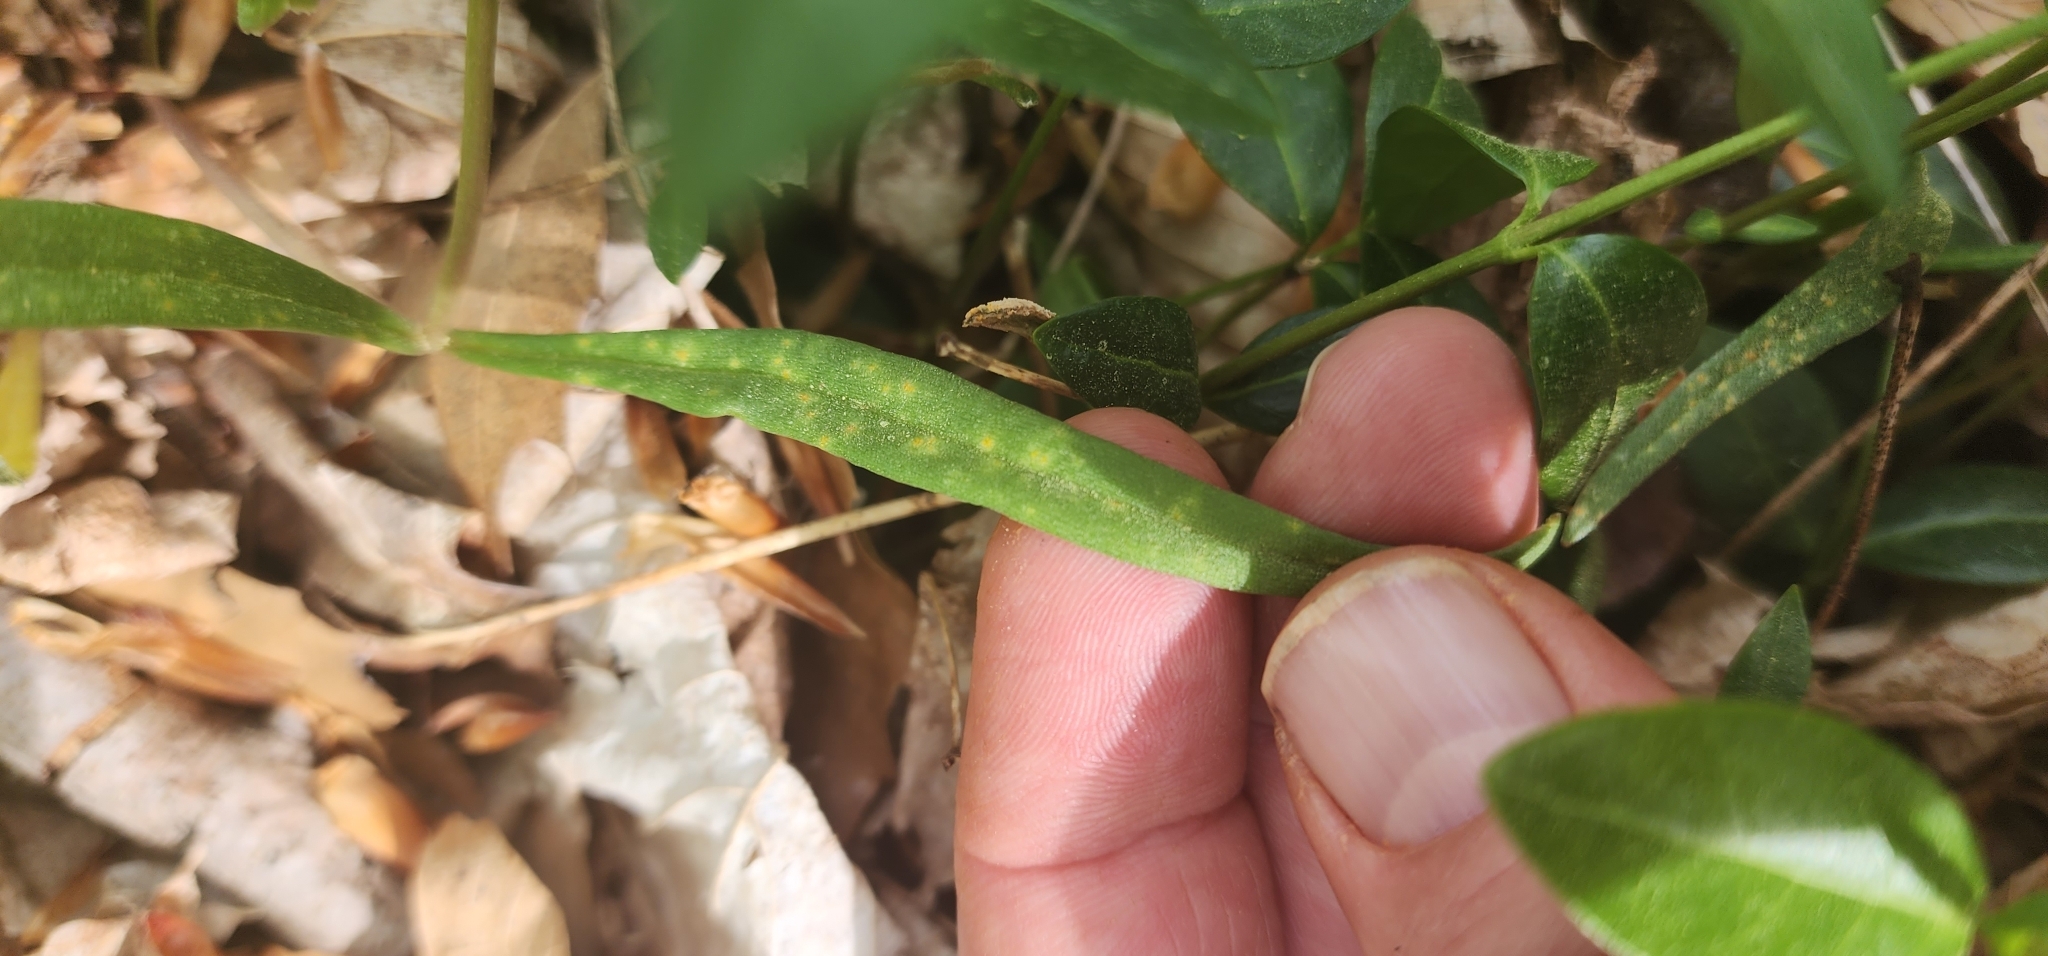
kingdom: Fungi
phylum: Basidiomycota
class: Pucciniomycetes
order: Pucciniales
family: Pucciniaceae
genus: Puccinia
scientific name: Puccinia mariae-wilsoniae
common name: Spring beauty rust
